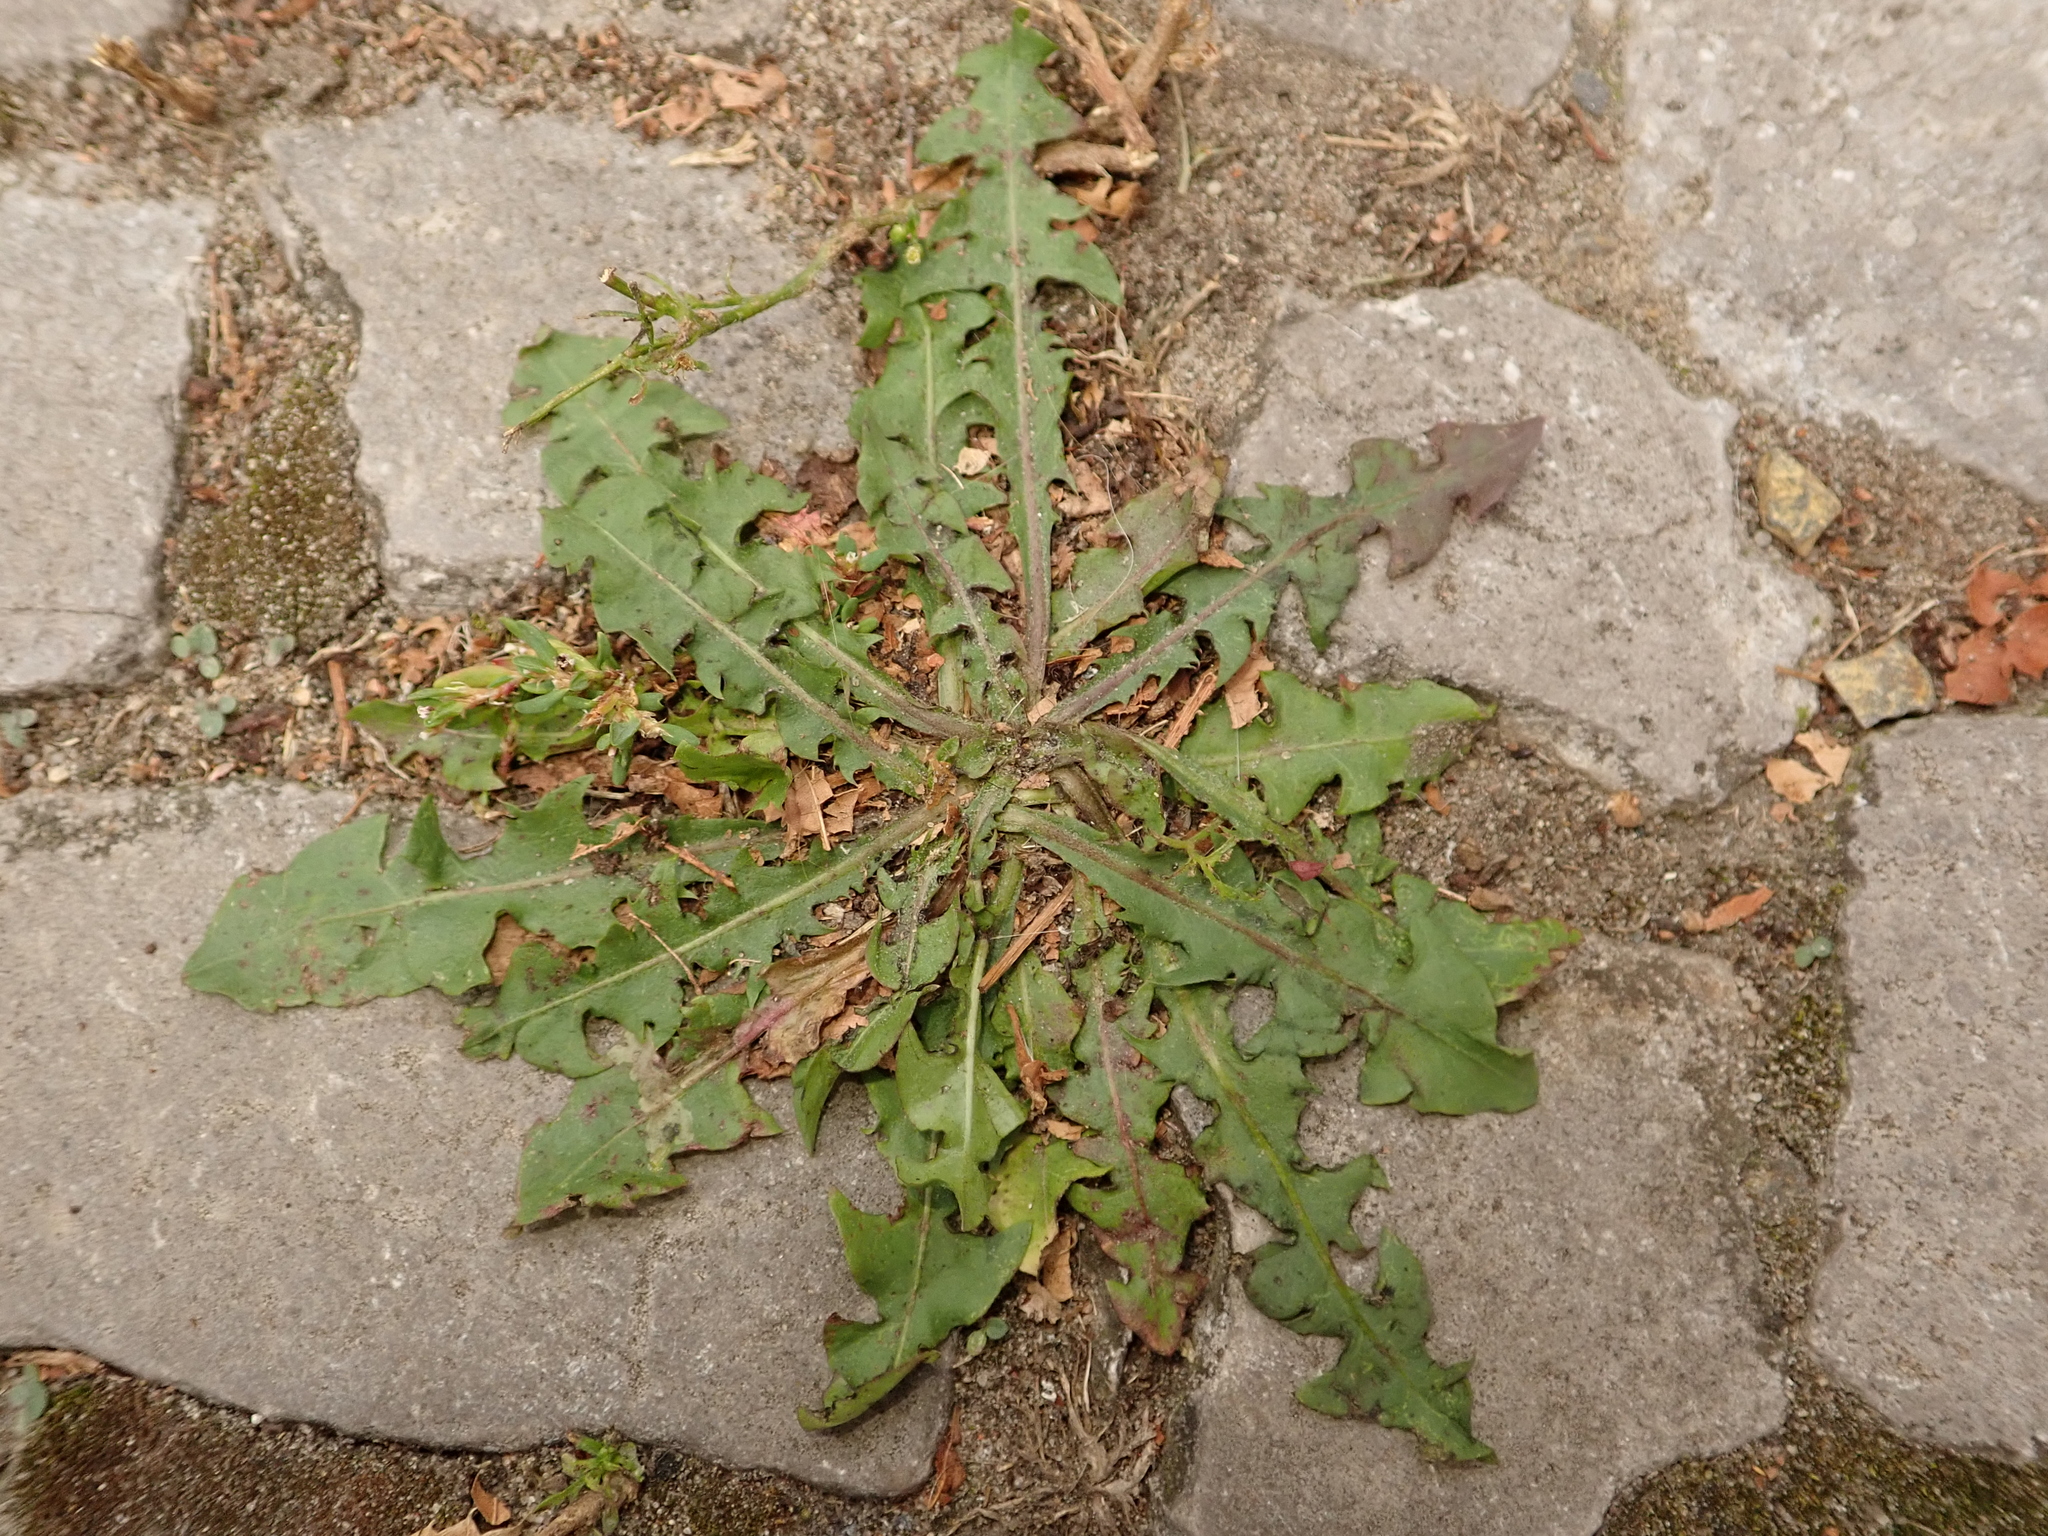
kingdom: Plantae
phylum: Tracheophyta
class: Magnoliopsida
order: Asterales
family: Asteraceae
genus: Taraxacum
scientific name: Taraxacum officinale
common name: Common dandelion
